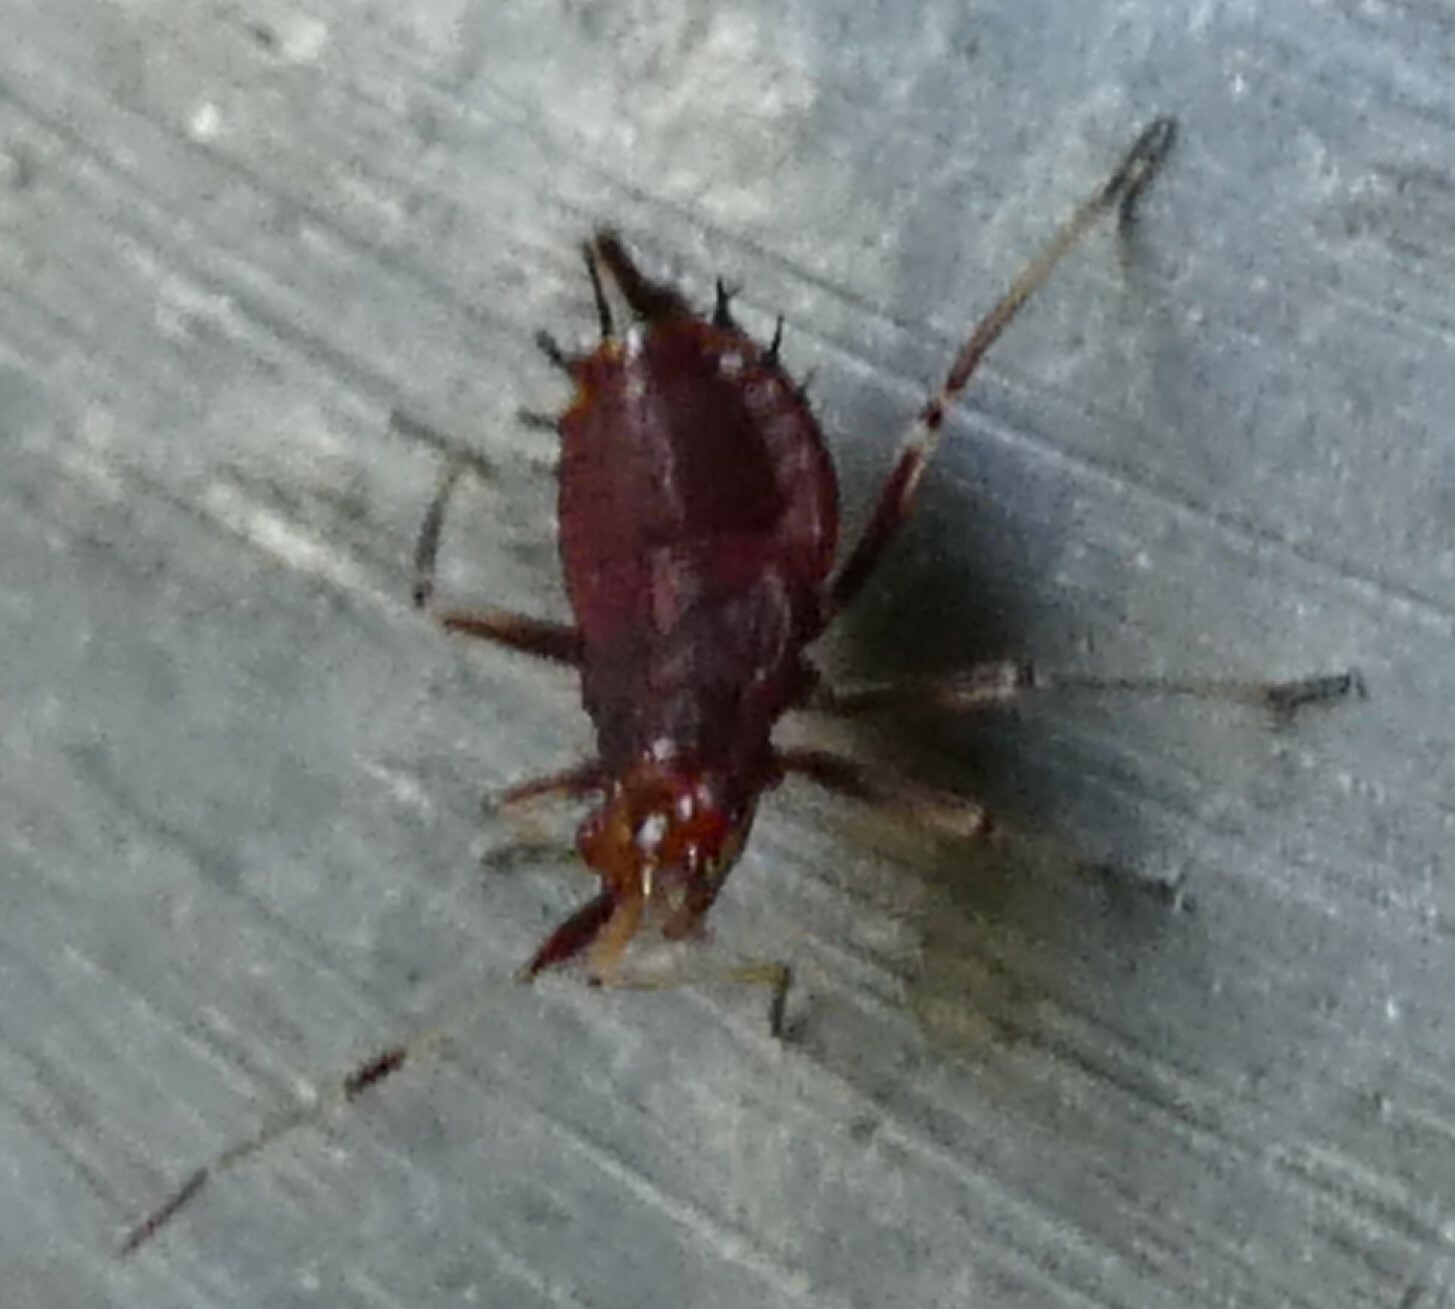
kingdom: Animalia
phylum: Arthropoda
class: Insecta
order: Hemiptera
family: Miridae
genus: Deraeocoris
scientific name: Deraeocoris ruber
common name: Plant bug
